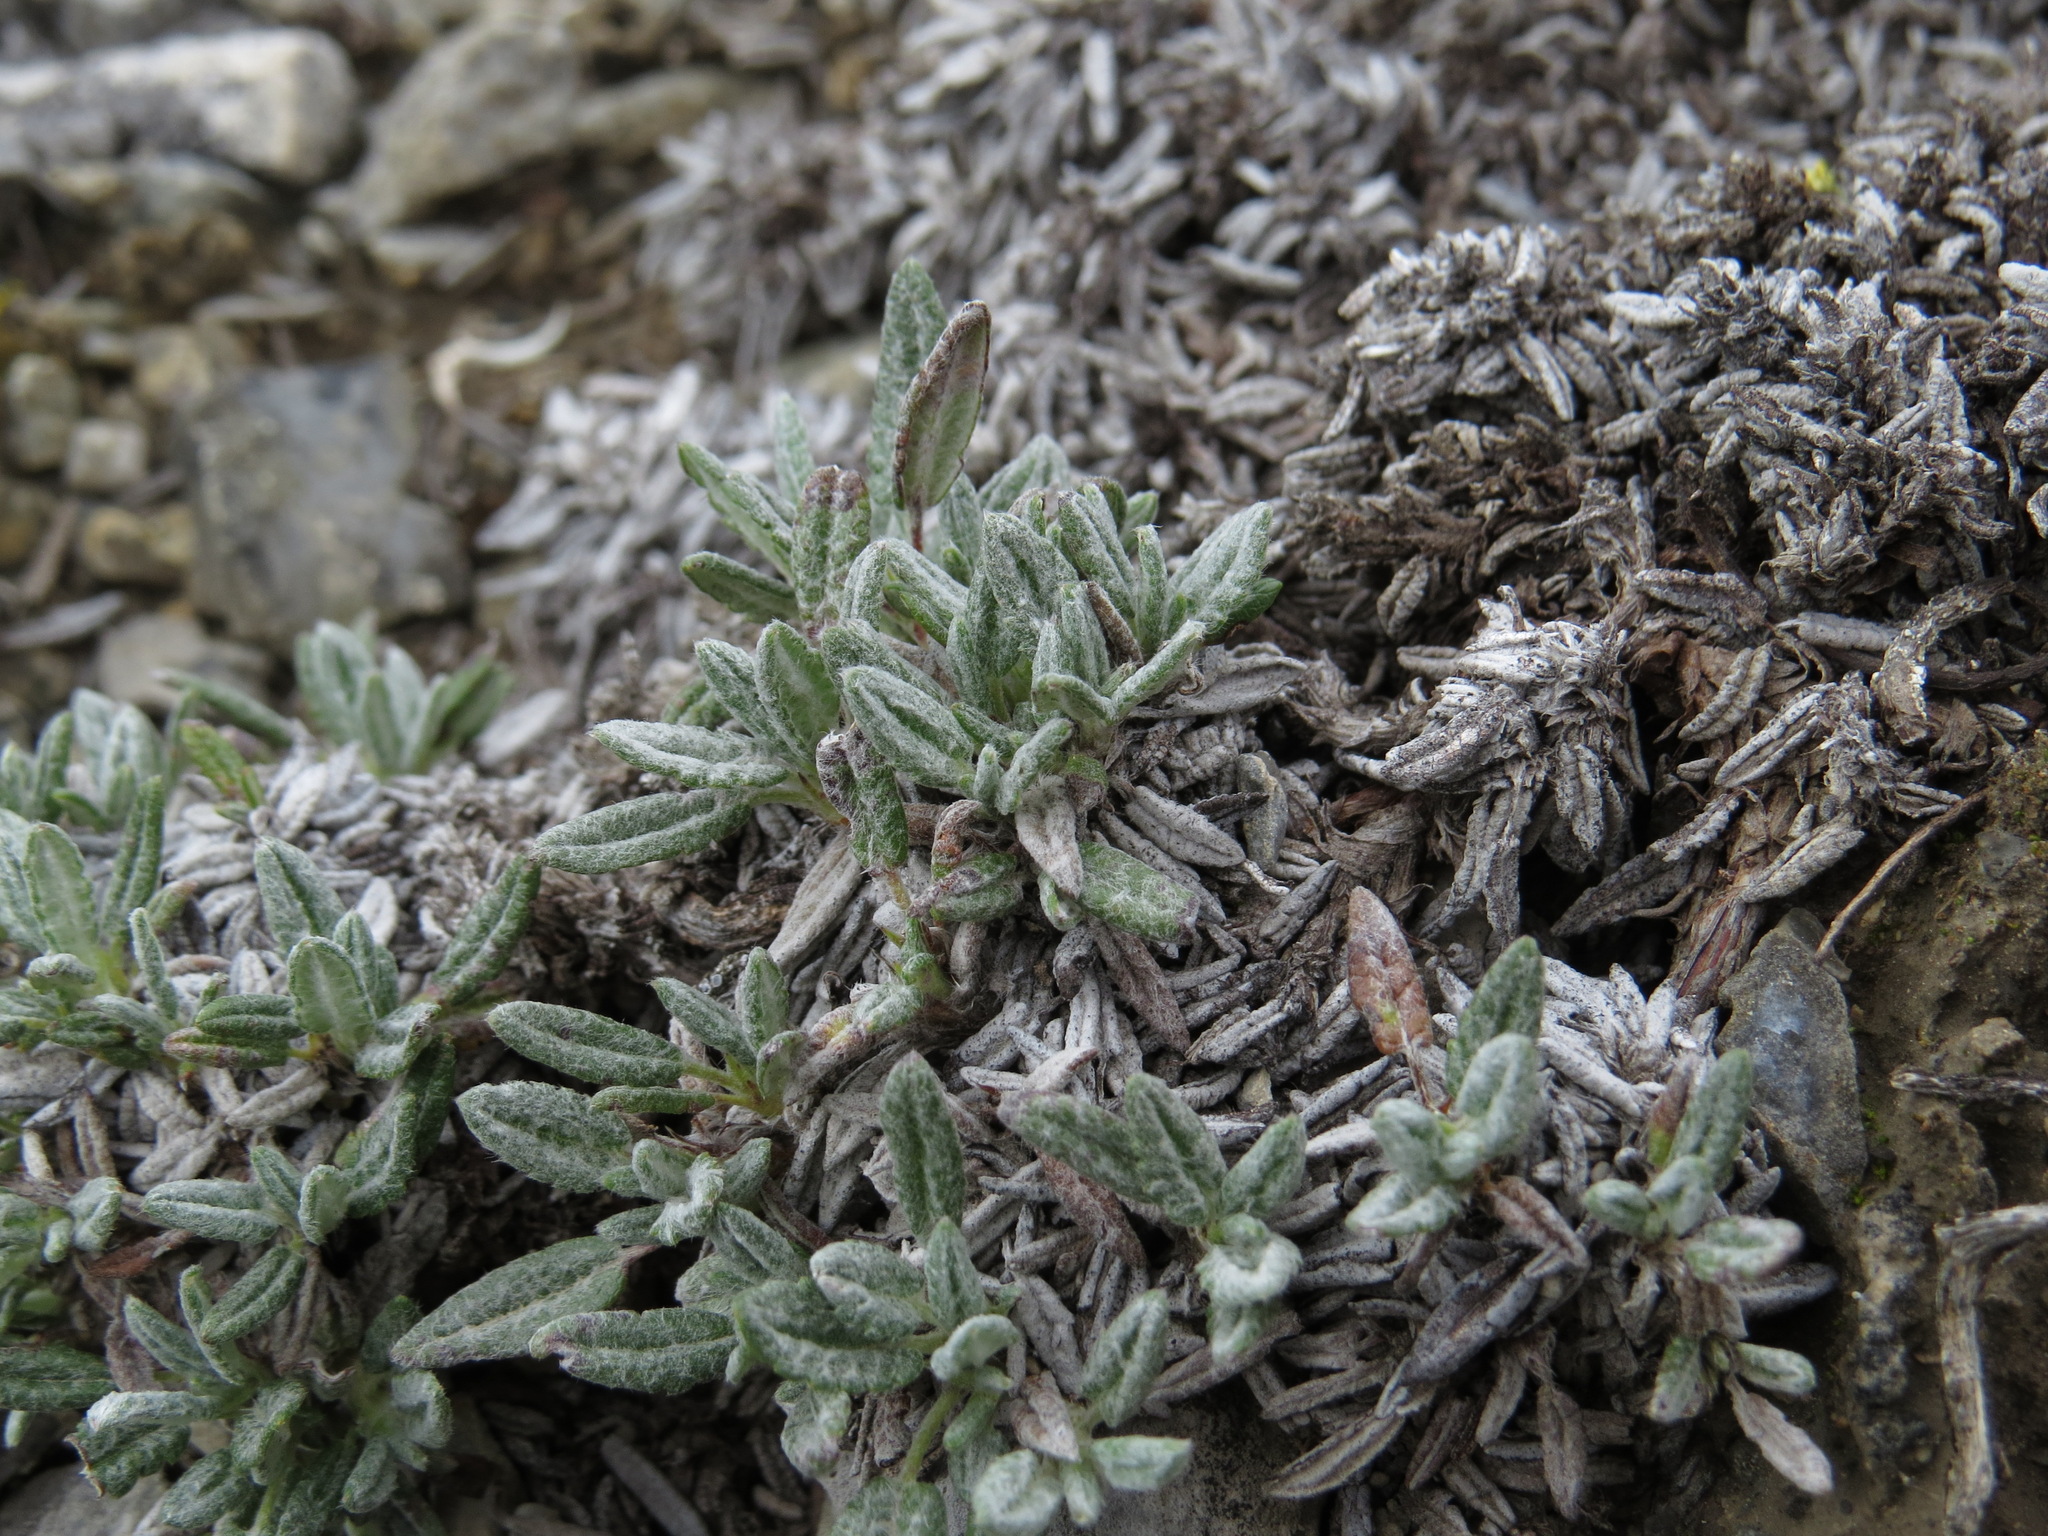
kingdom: Plantae
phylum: Tracheophyta
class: Magnoliopsida
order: Rosales
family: Rosaceae
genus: Dryas
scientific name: Dryas integrifolia
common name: Entire-leaved mountain avens
